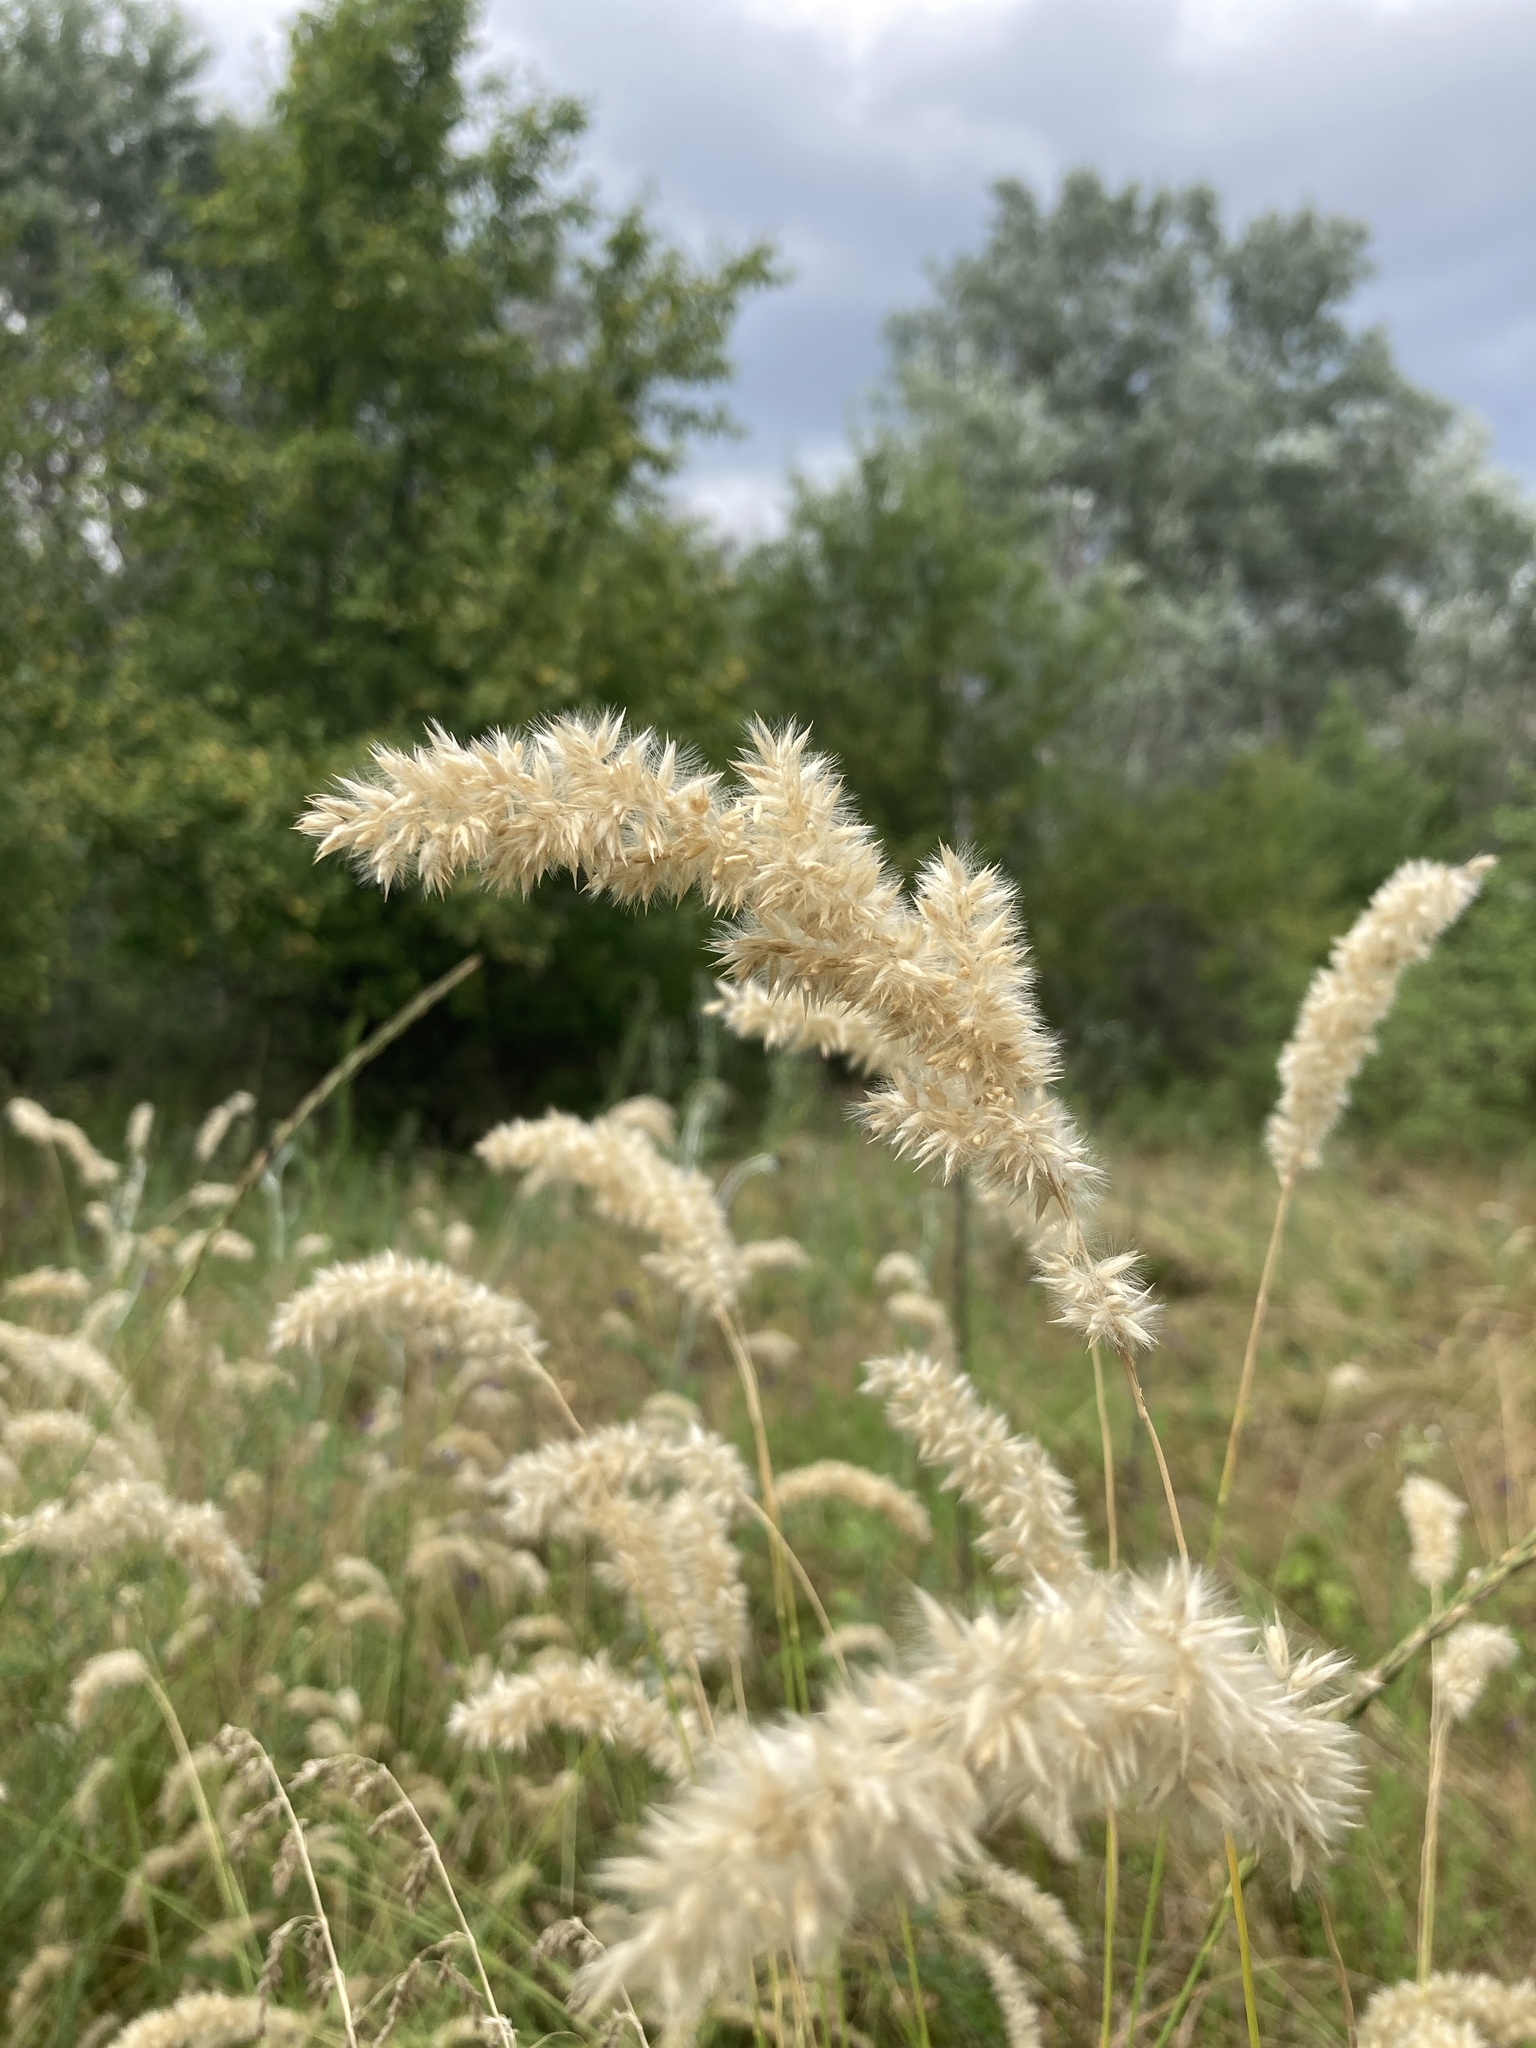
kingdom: Plantae
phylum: Tracheophyta
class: Liliopsida
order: Poales
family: Poaceae
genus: Melica
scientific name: Melica transsilvanica
